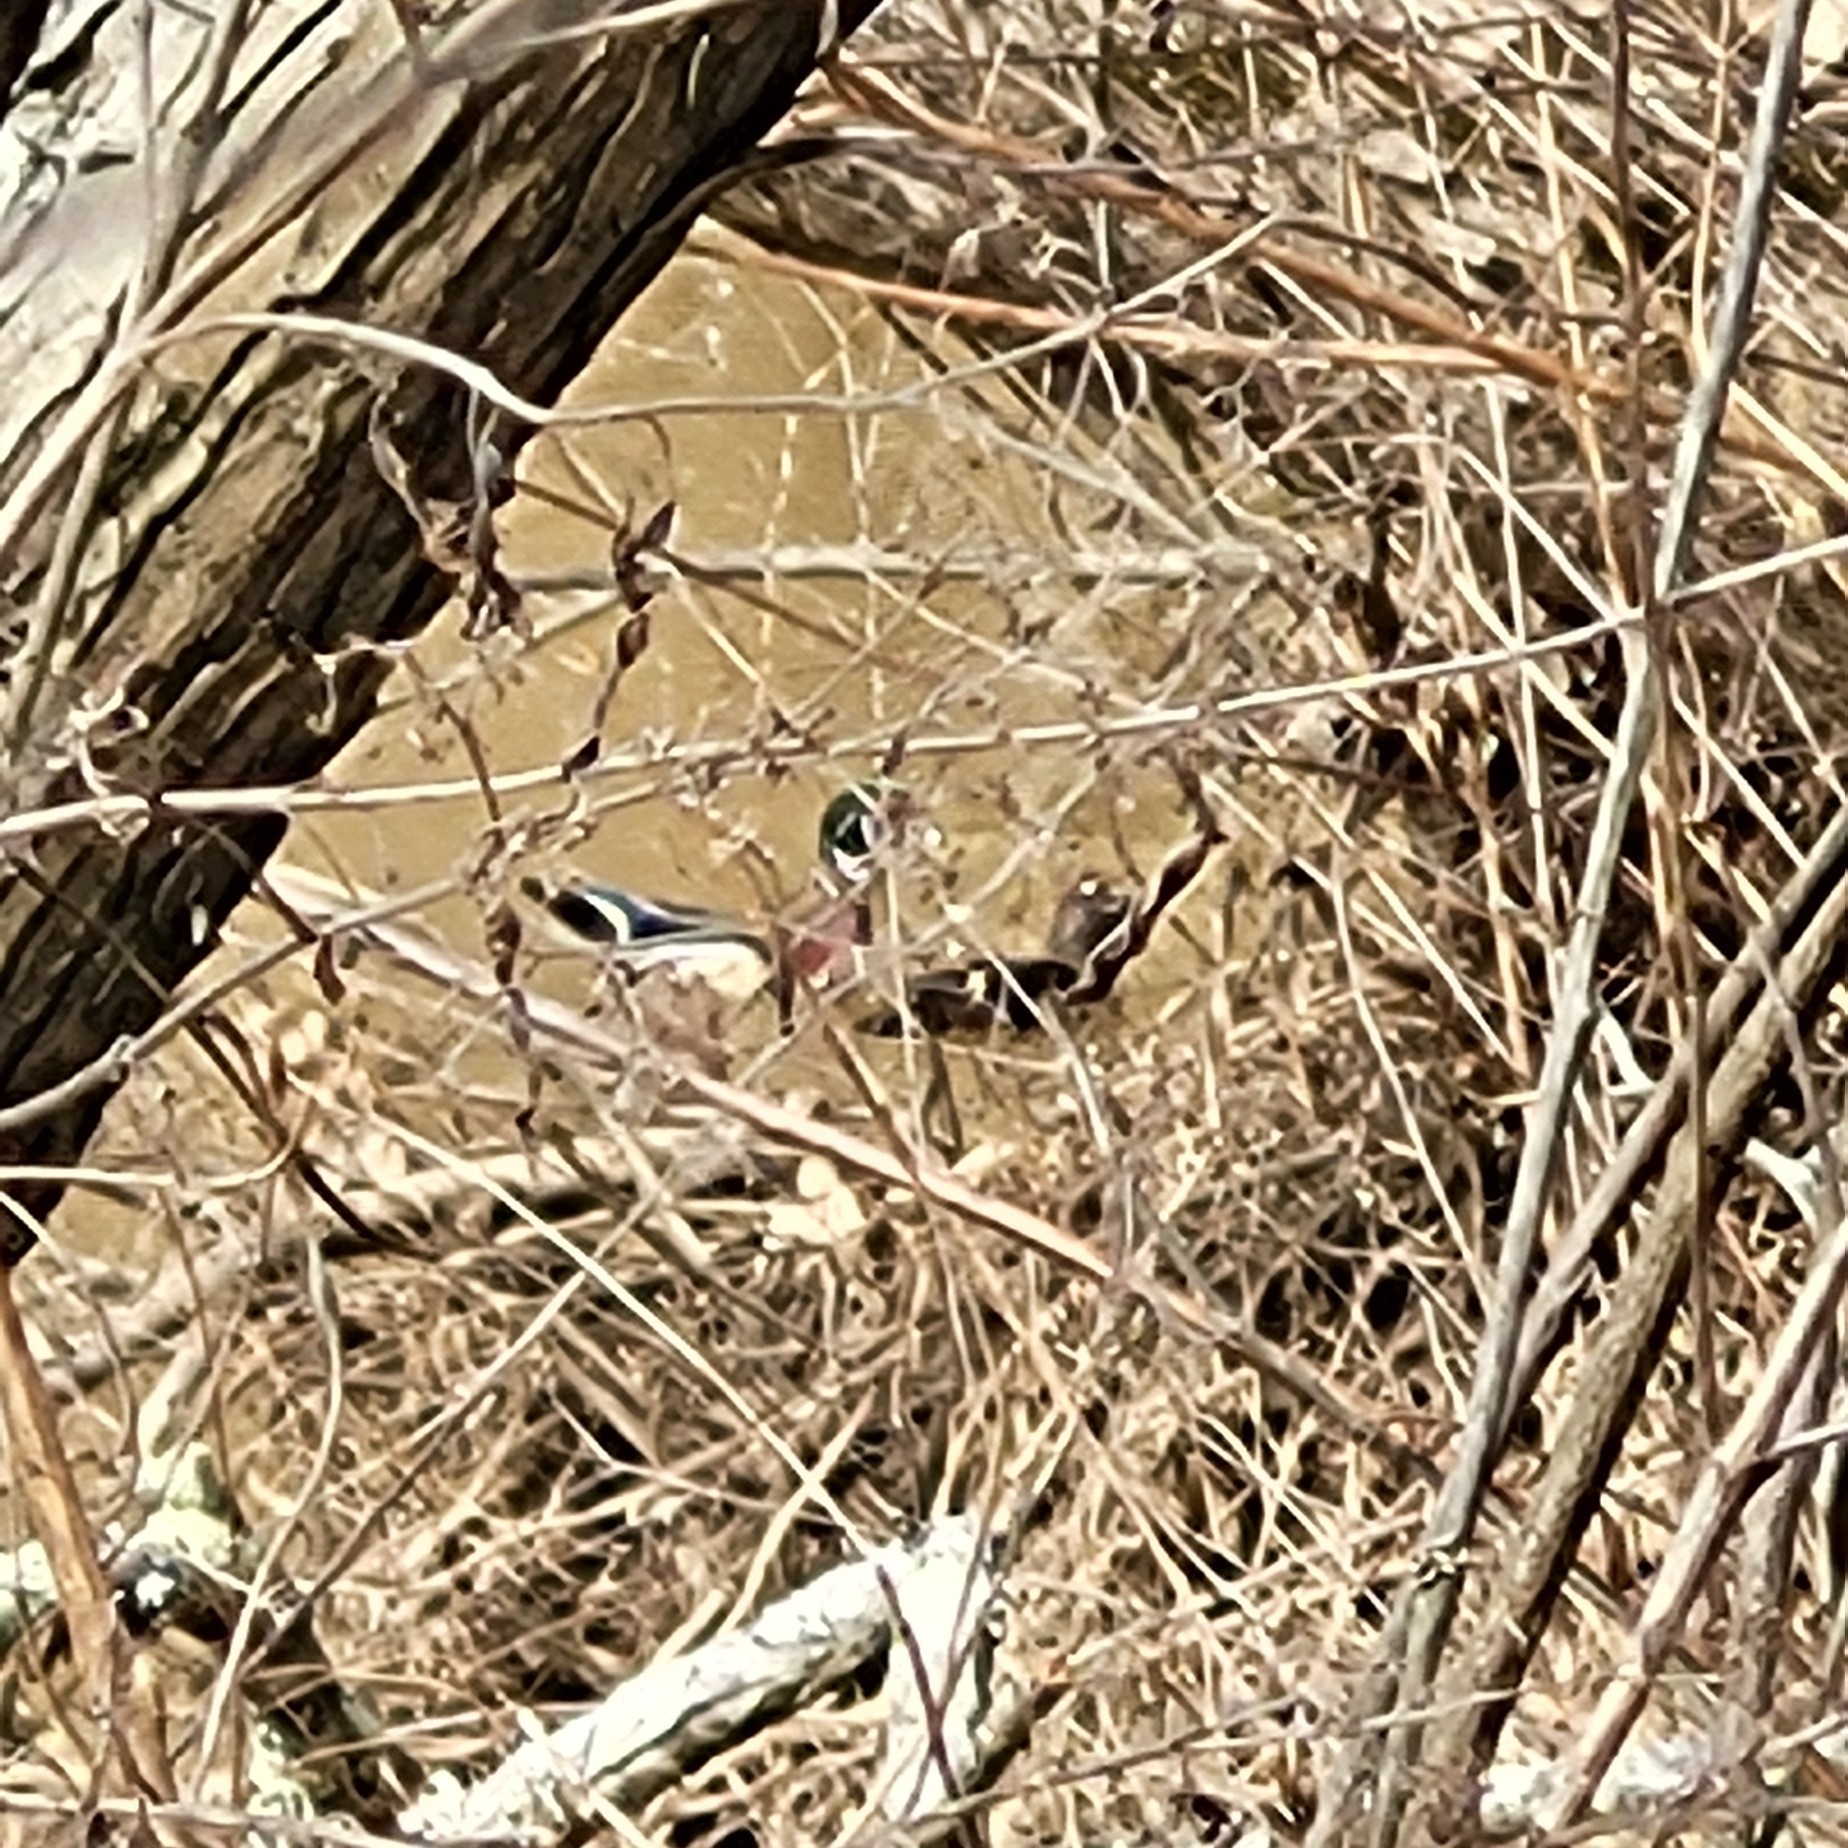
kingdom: Animalia
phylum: Chordata
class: Aves
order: Anseriformes
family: Anatidae
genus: Aix
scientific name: Aix sponsa
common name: Wood duck
